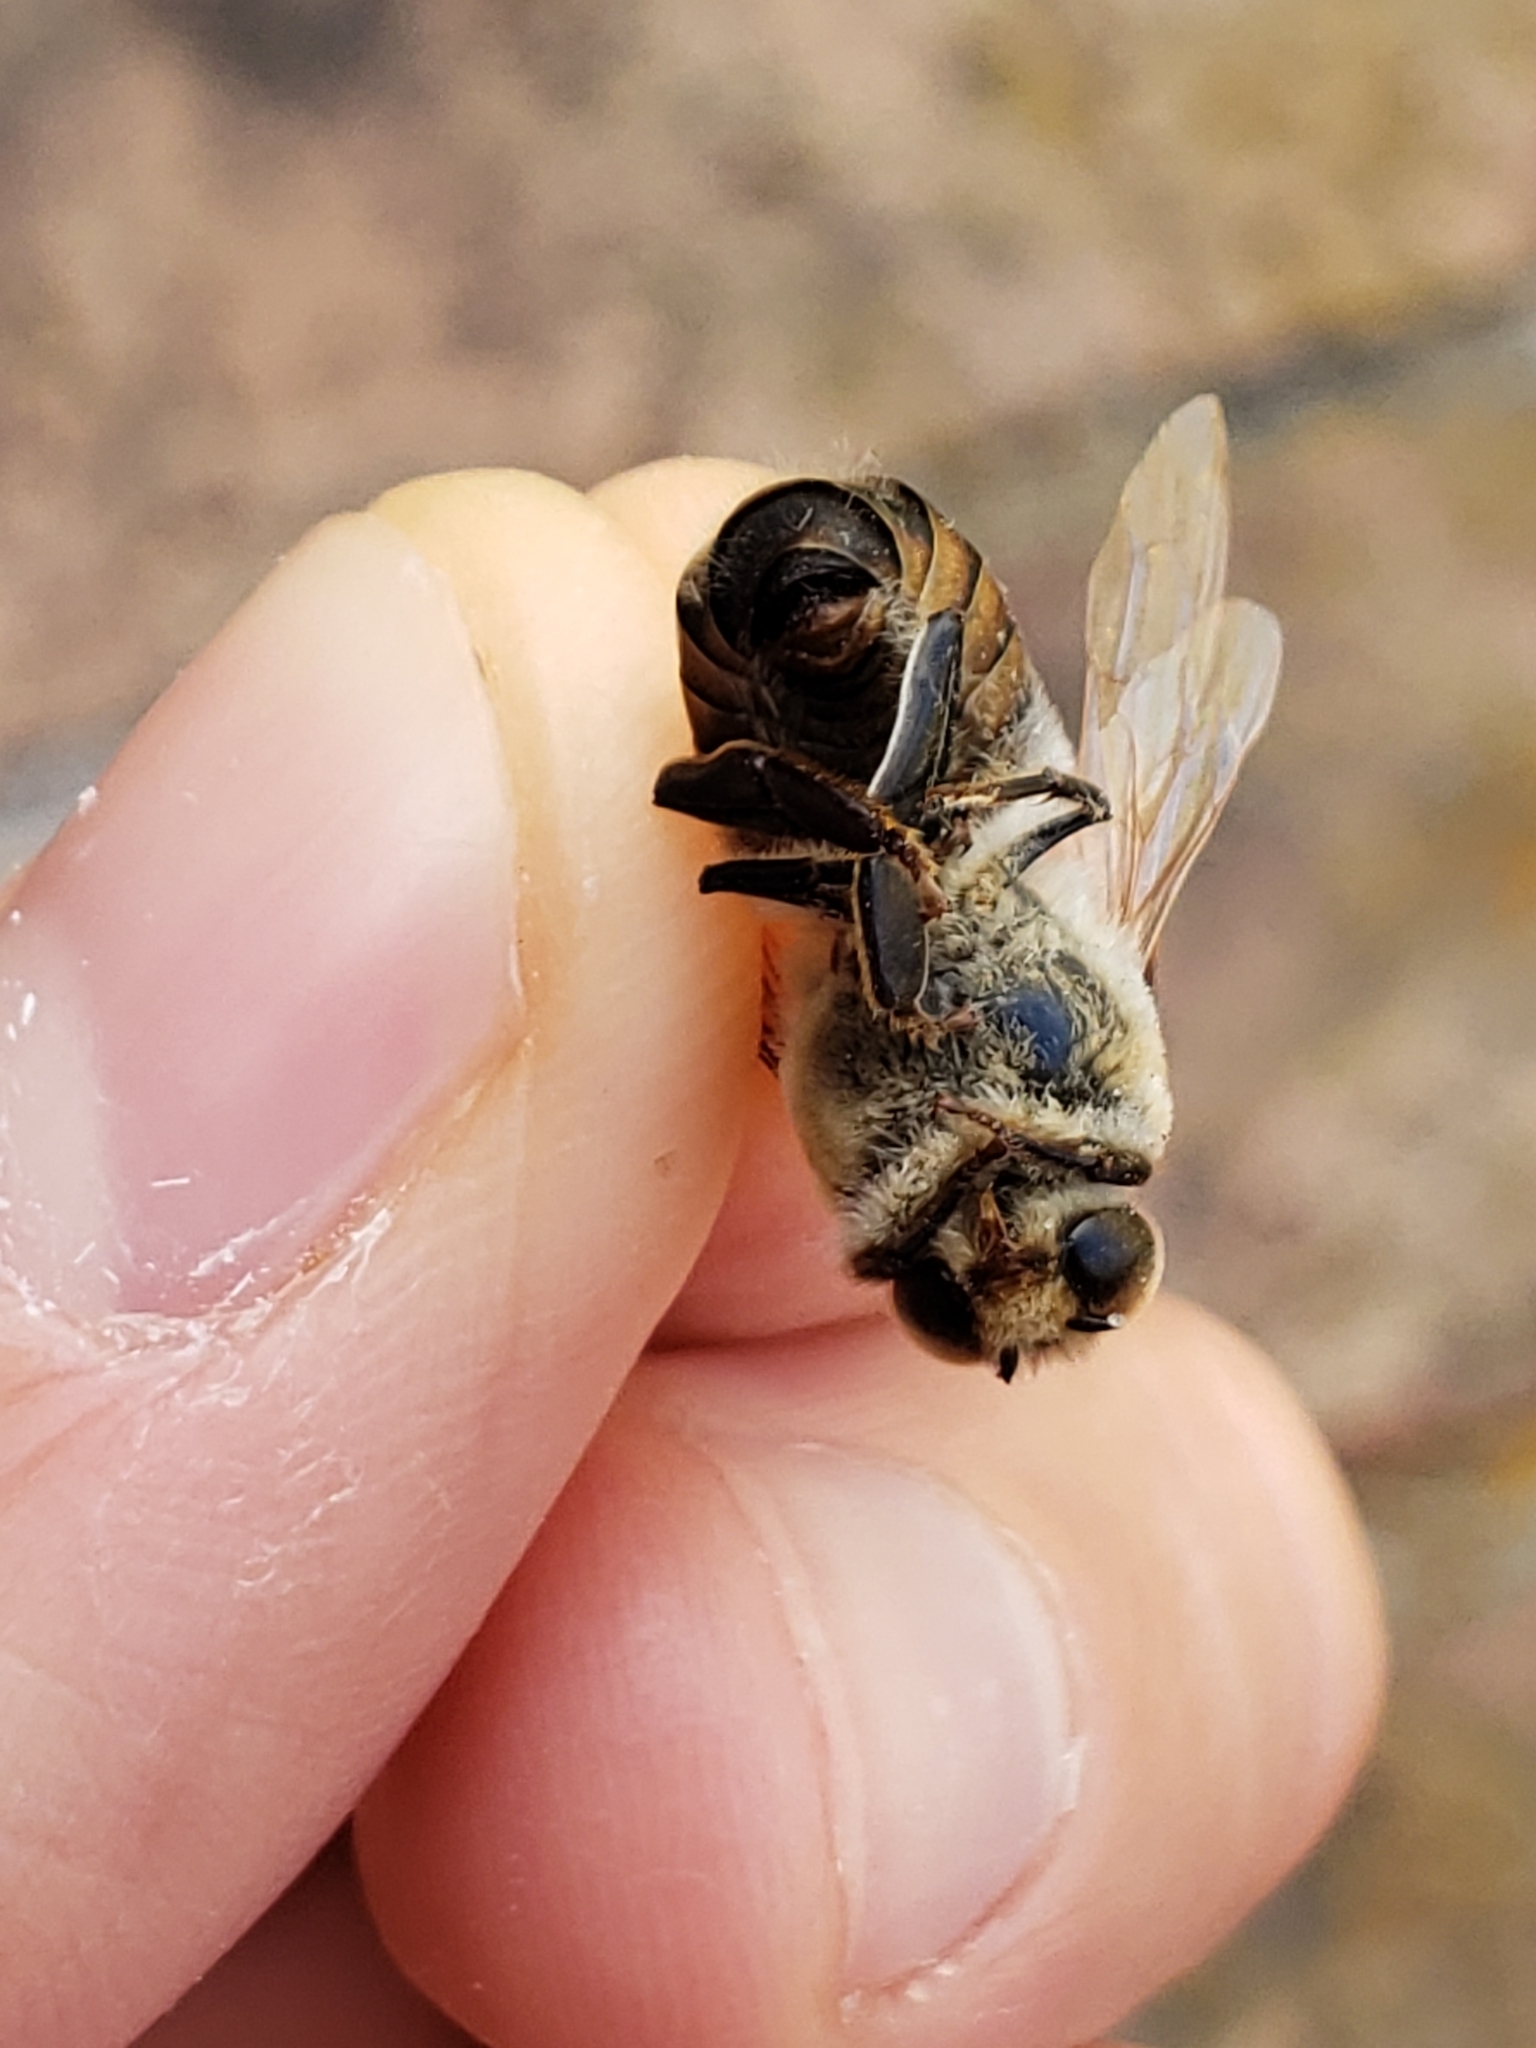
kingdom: Animalia
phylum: Arthropoda
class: Insecta
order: Hymenoptera
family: Apidae
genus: Apis
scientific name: Apis mellifera
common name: Honey bee
